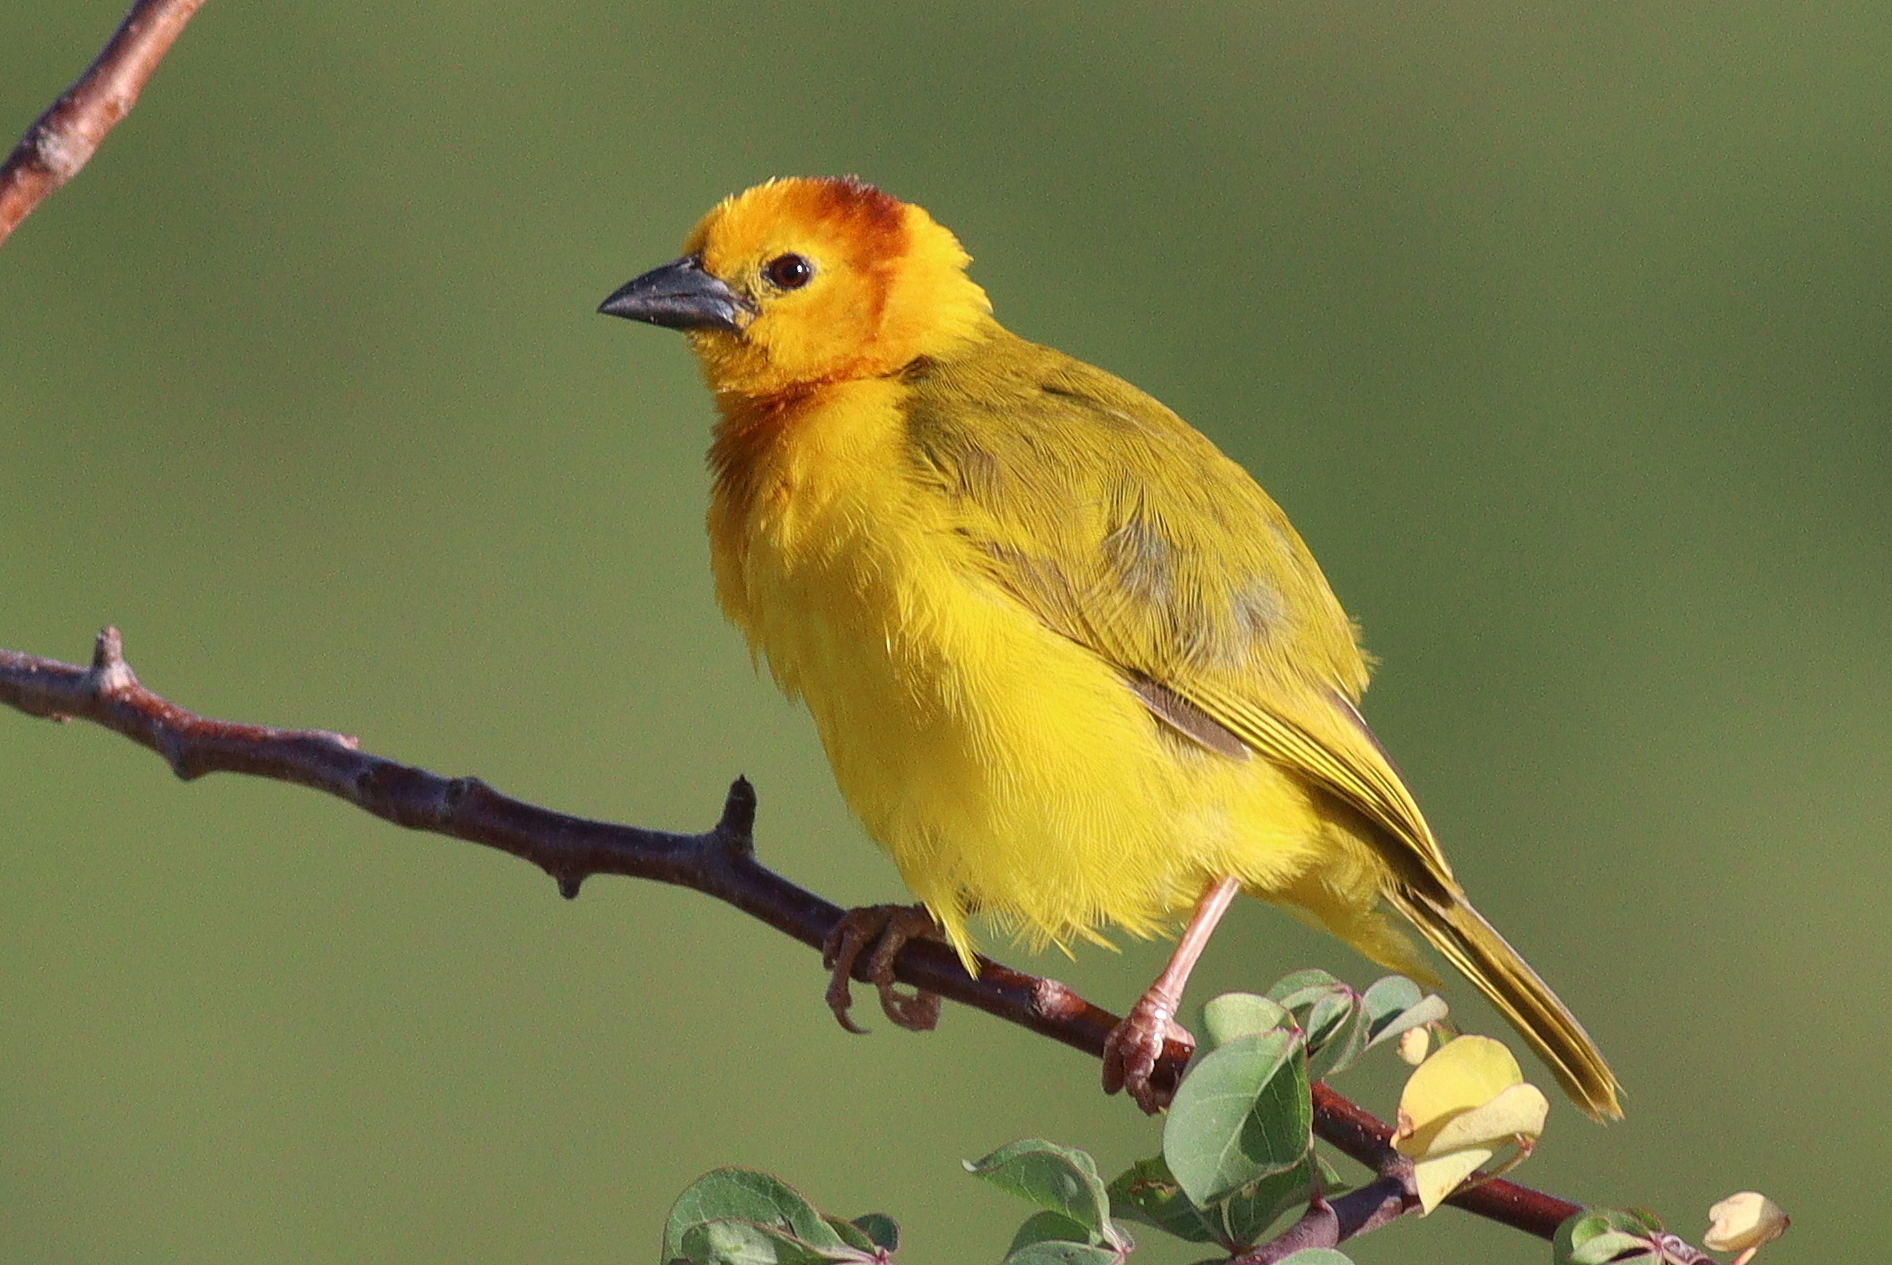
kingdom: Animalia
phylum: Chordata
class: Aves
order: Passeriformes
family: Ploceidae
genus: Ploceus
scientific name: Ploceus castaneiceps
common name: Taveta weaver
